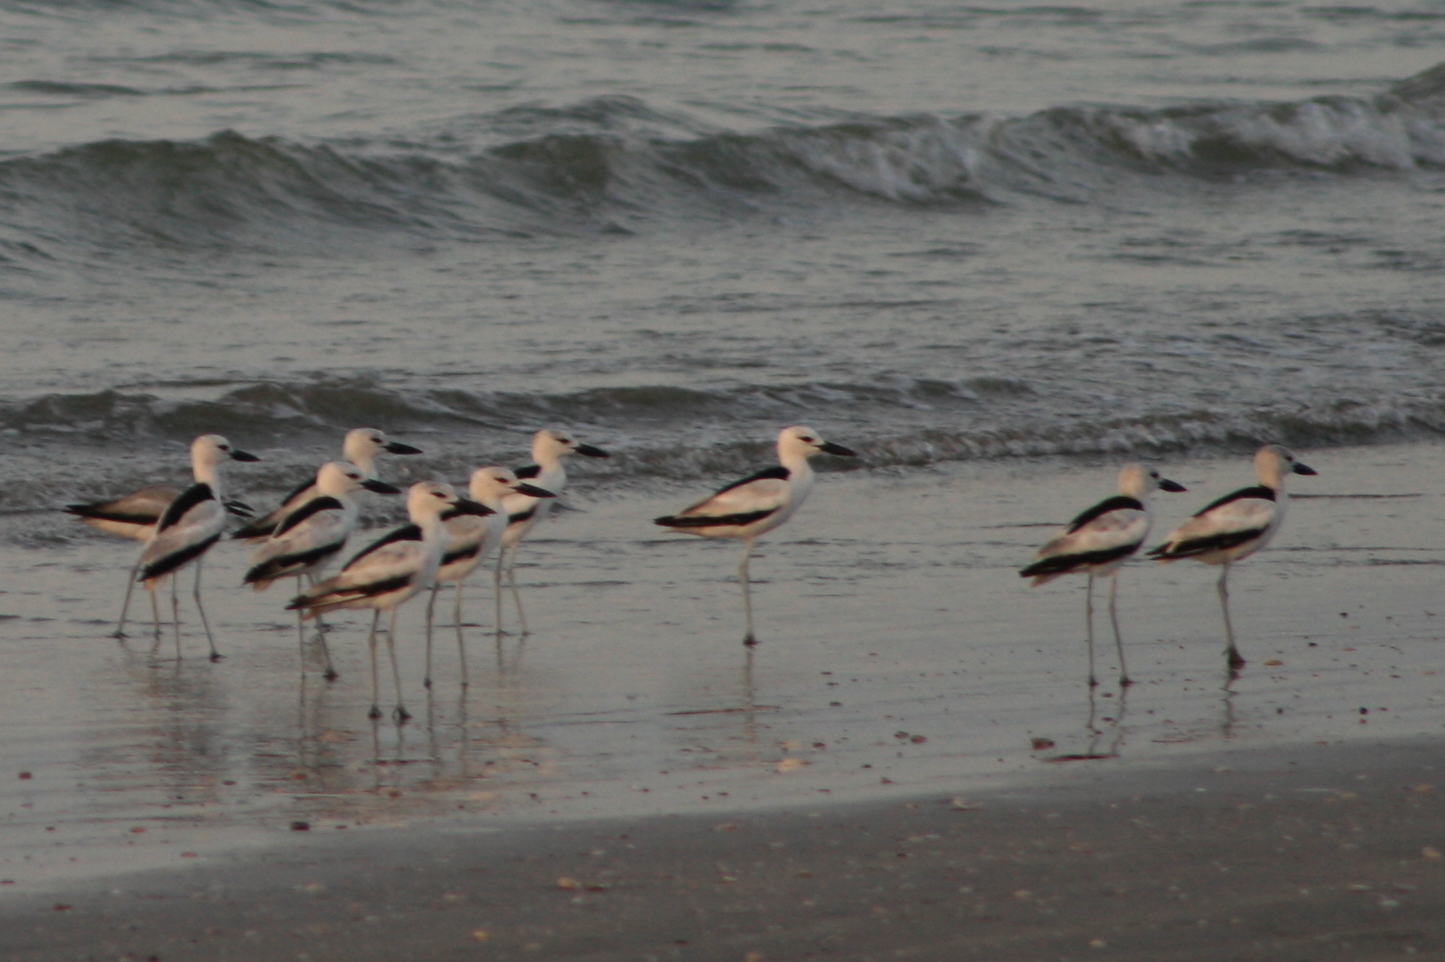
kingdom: Animalia
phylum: Chordata
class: Aves
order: Charadriiformes
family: Dromadidae
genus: Dromas
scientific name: Dromas ardeola
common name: Crab-plover
